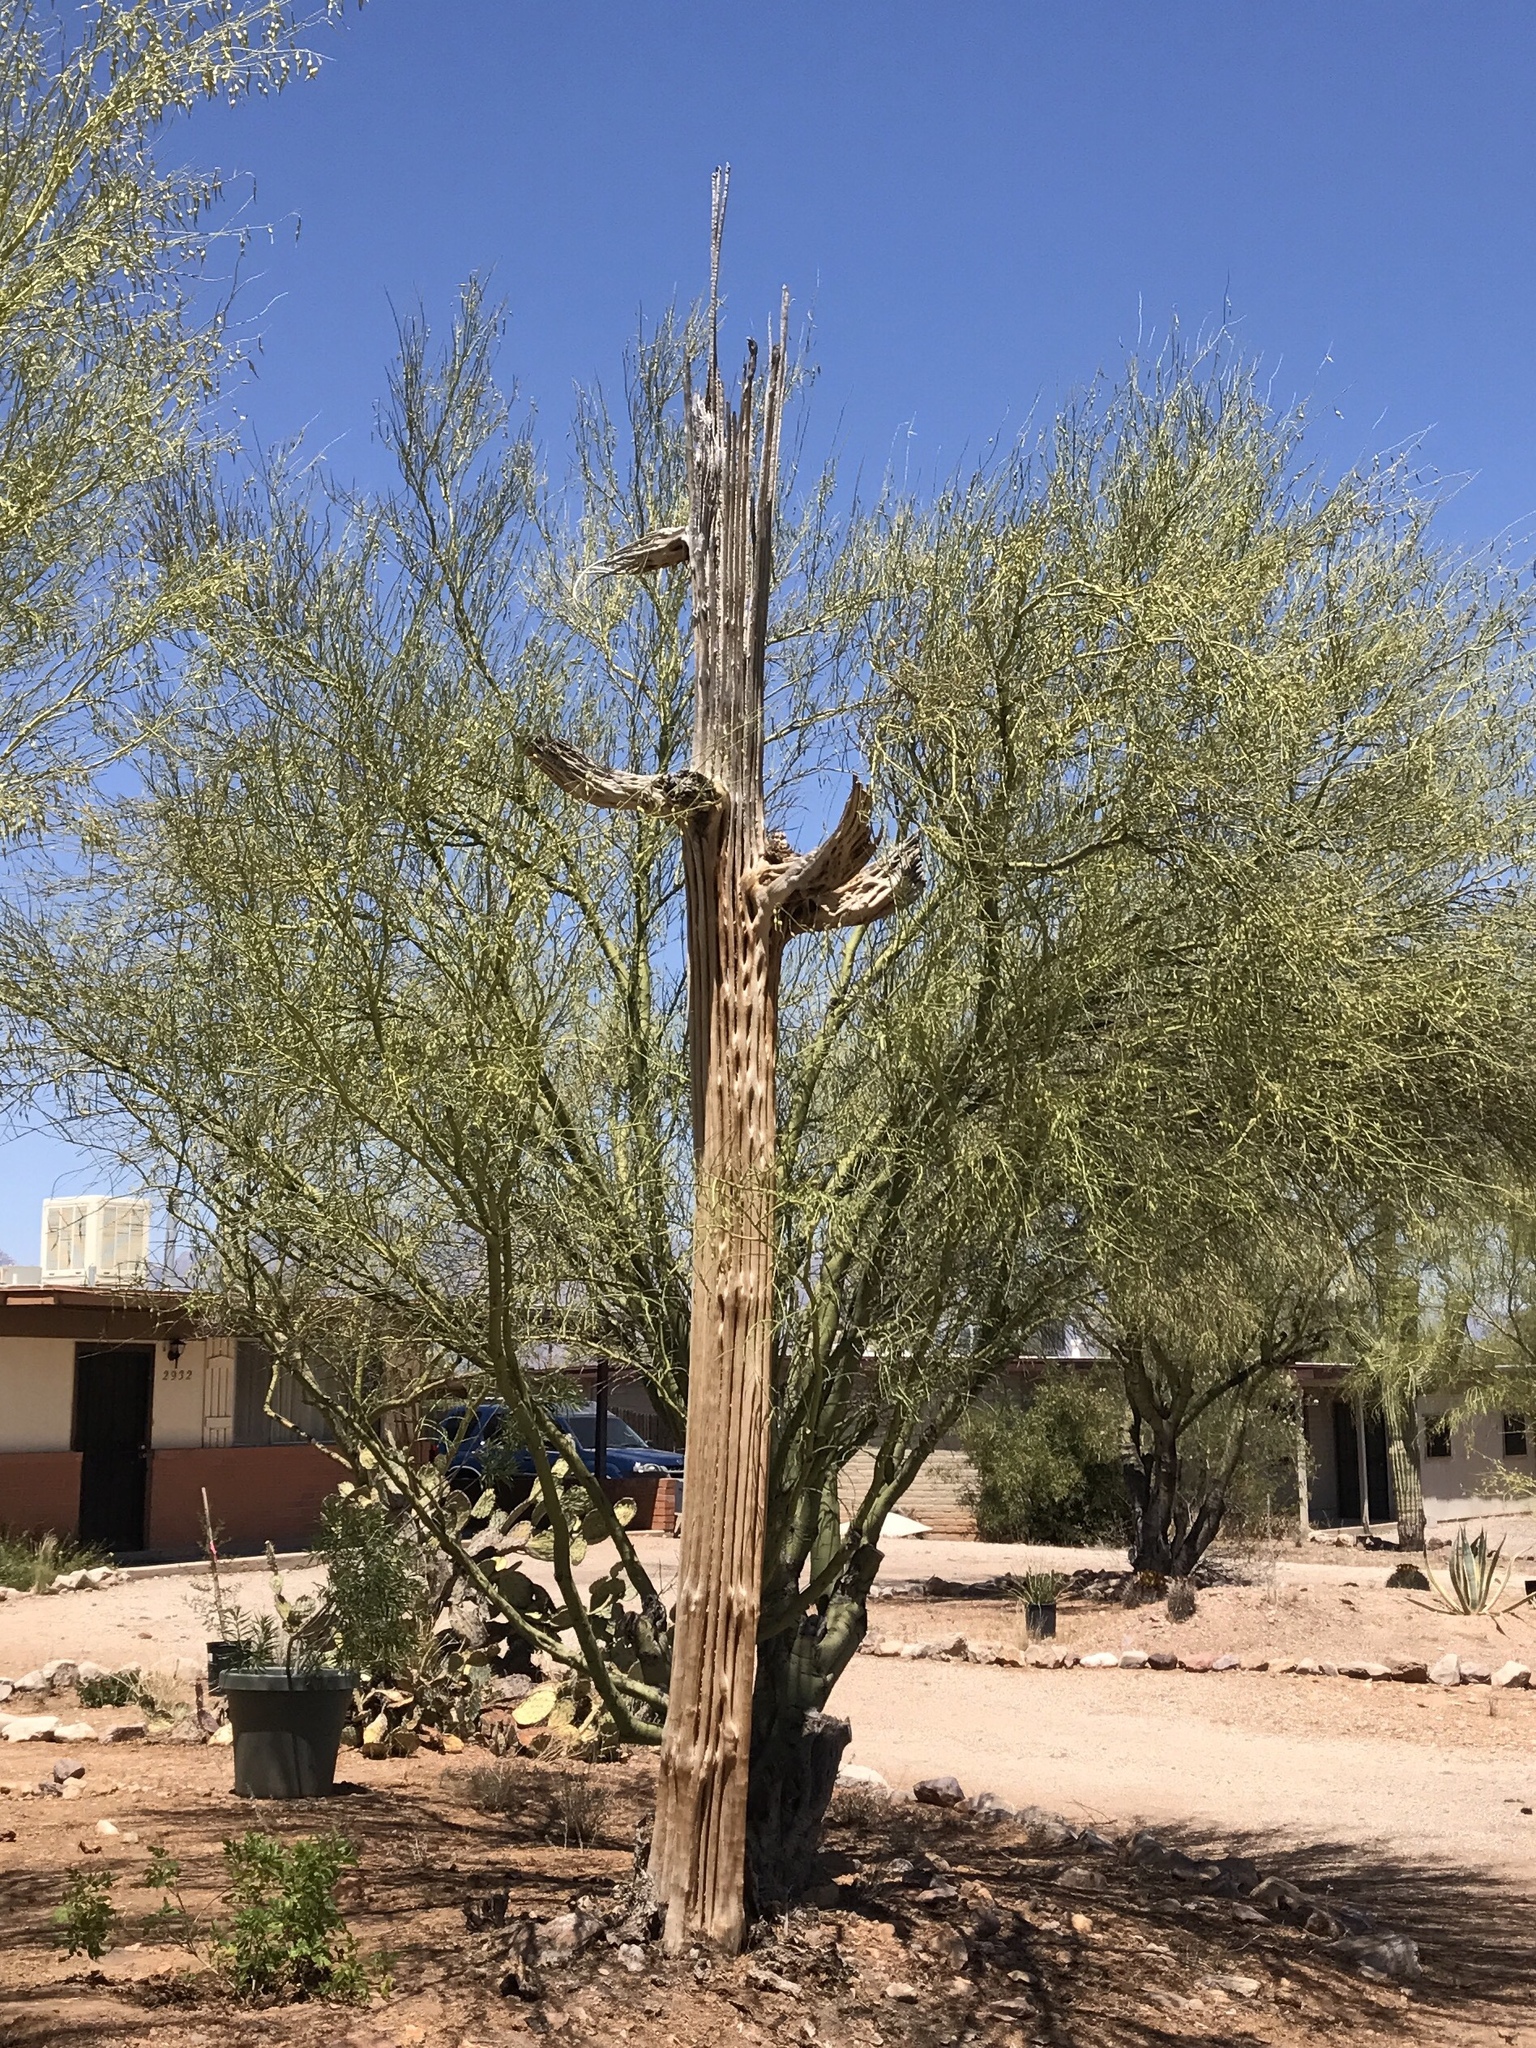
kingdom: Plantae
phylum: Tracheophyta
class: Magnoliopsida
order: Caryophyllales
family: Cactaceae
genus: Carnegiea
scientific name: Carnegiea gigantea
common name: Saguaro
